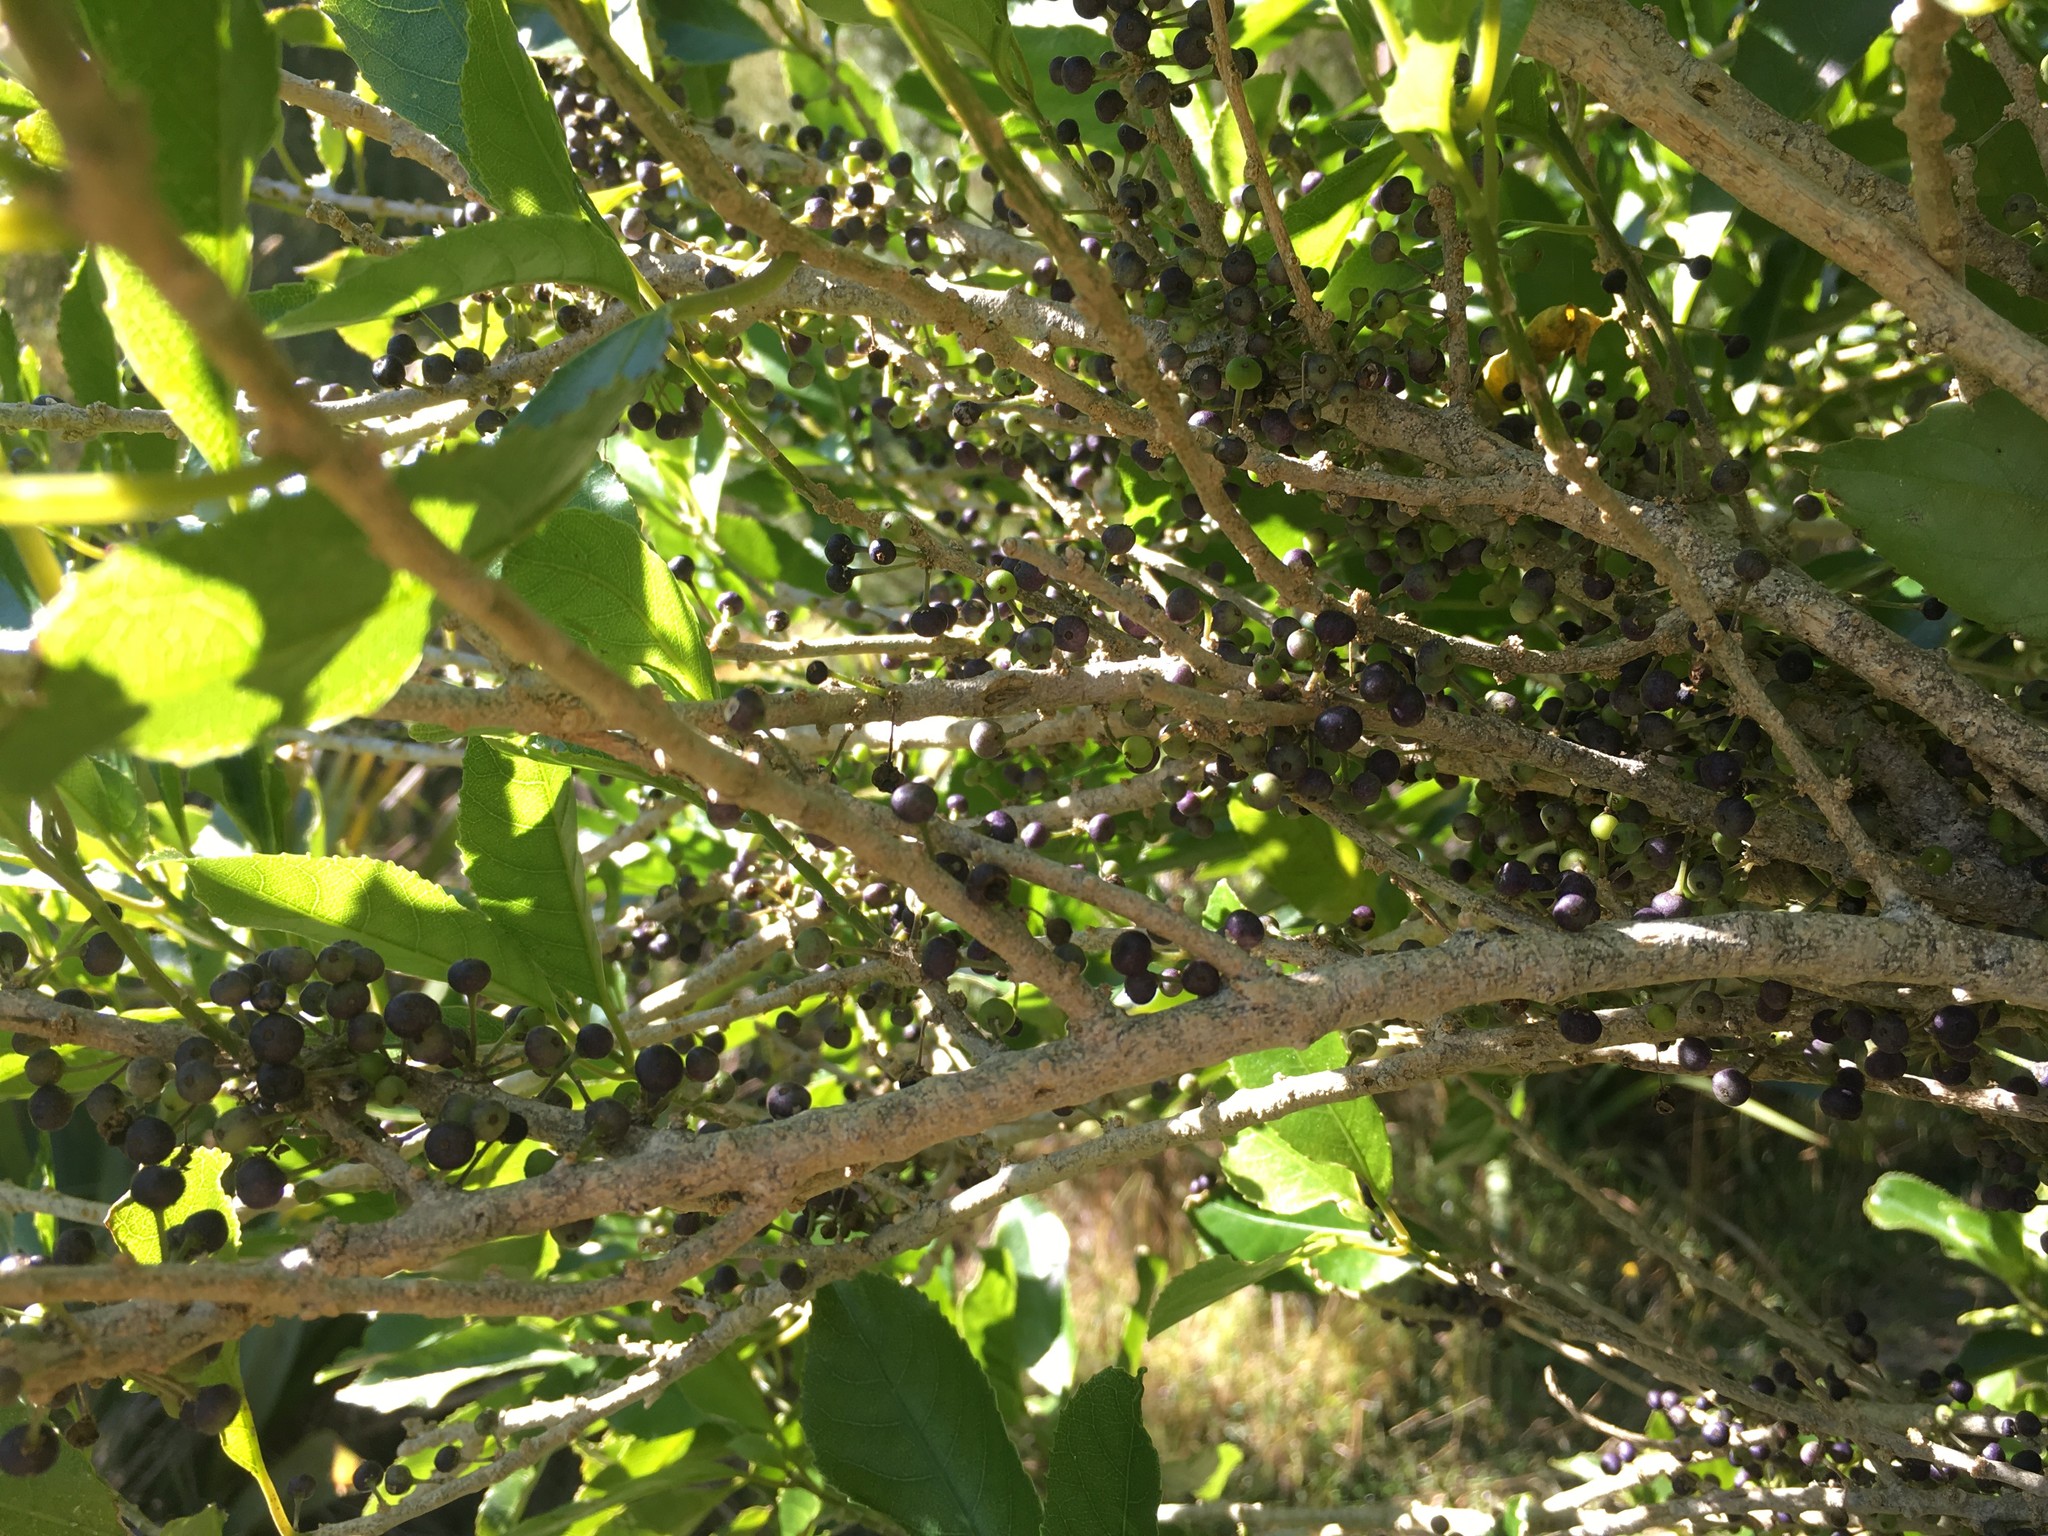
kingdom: Plantae
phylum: Tracheophyta
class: Magnoliopsida
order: Malpighiales
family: Violaceae
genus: Melicytus
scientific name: Melicytus ramiflorus
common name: Mahoe
